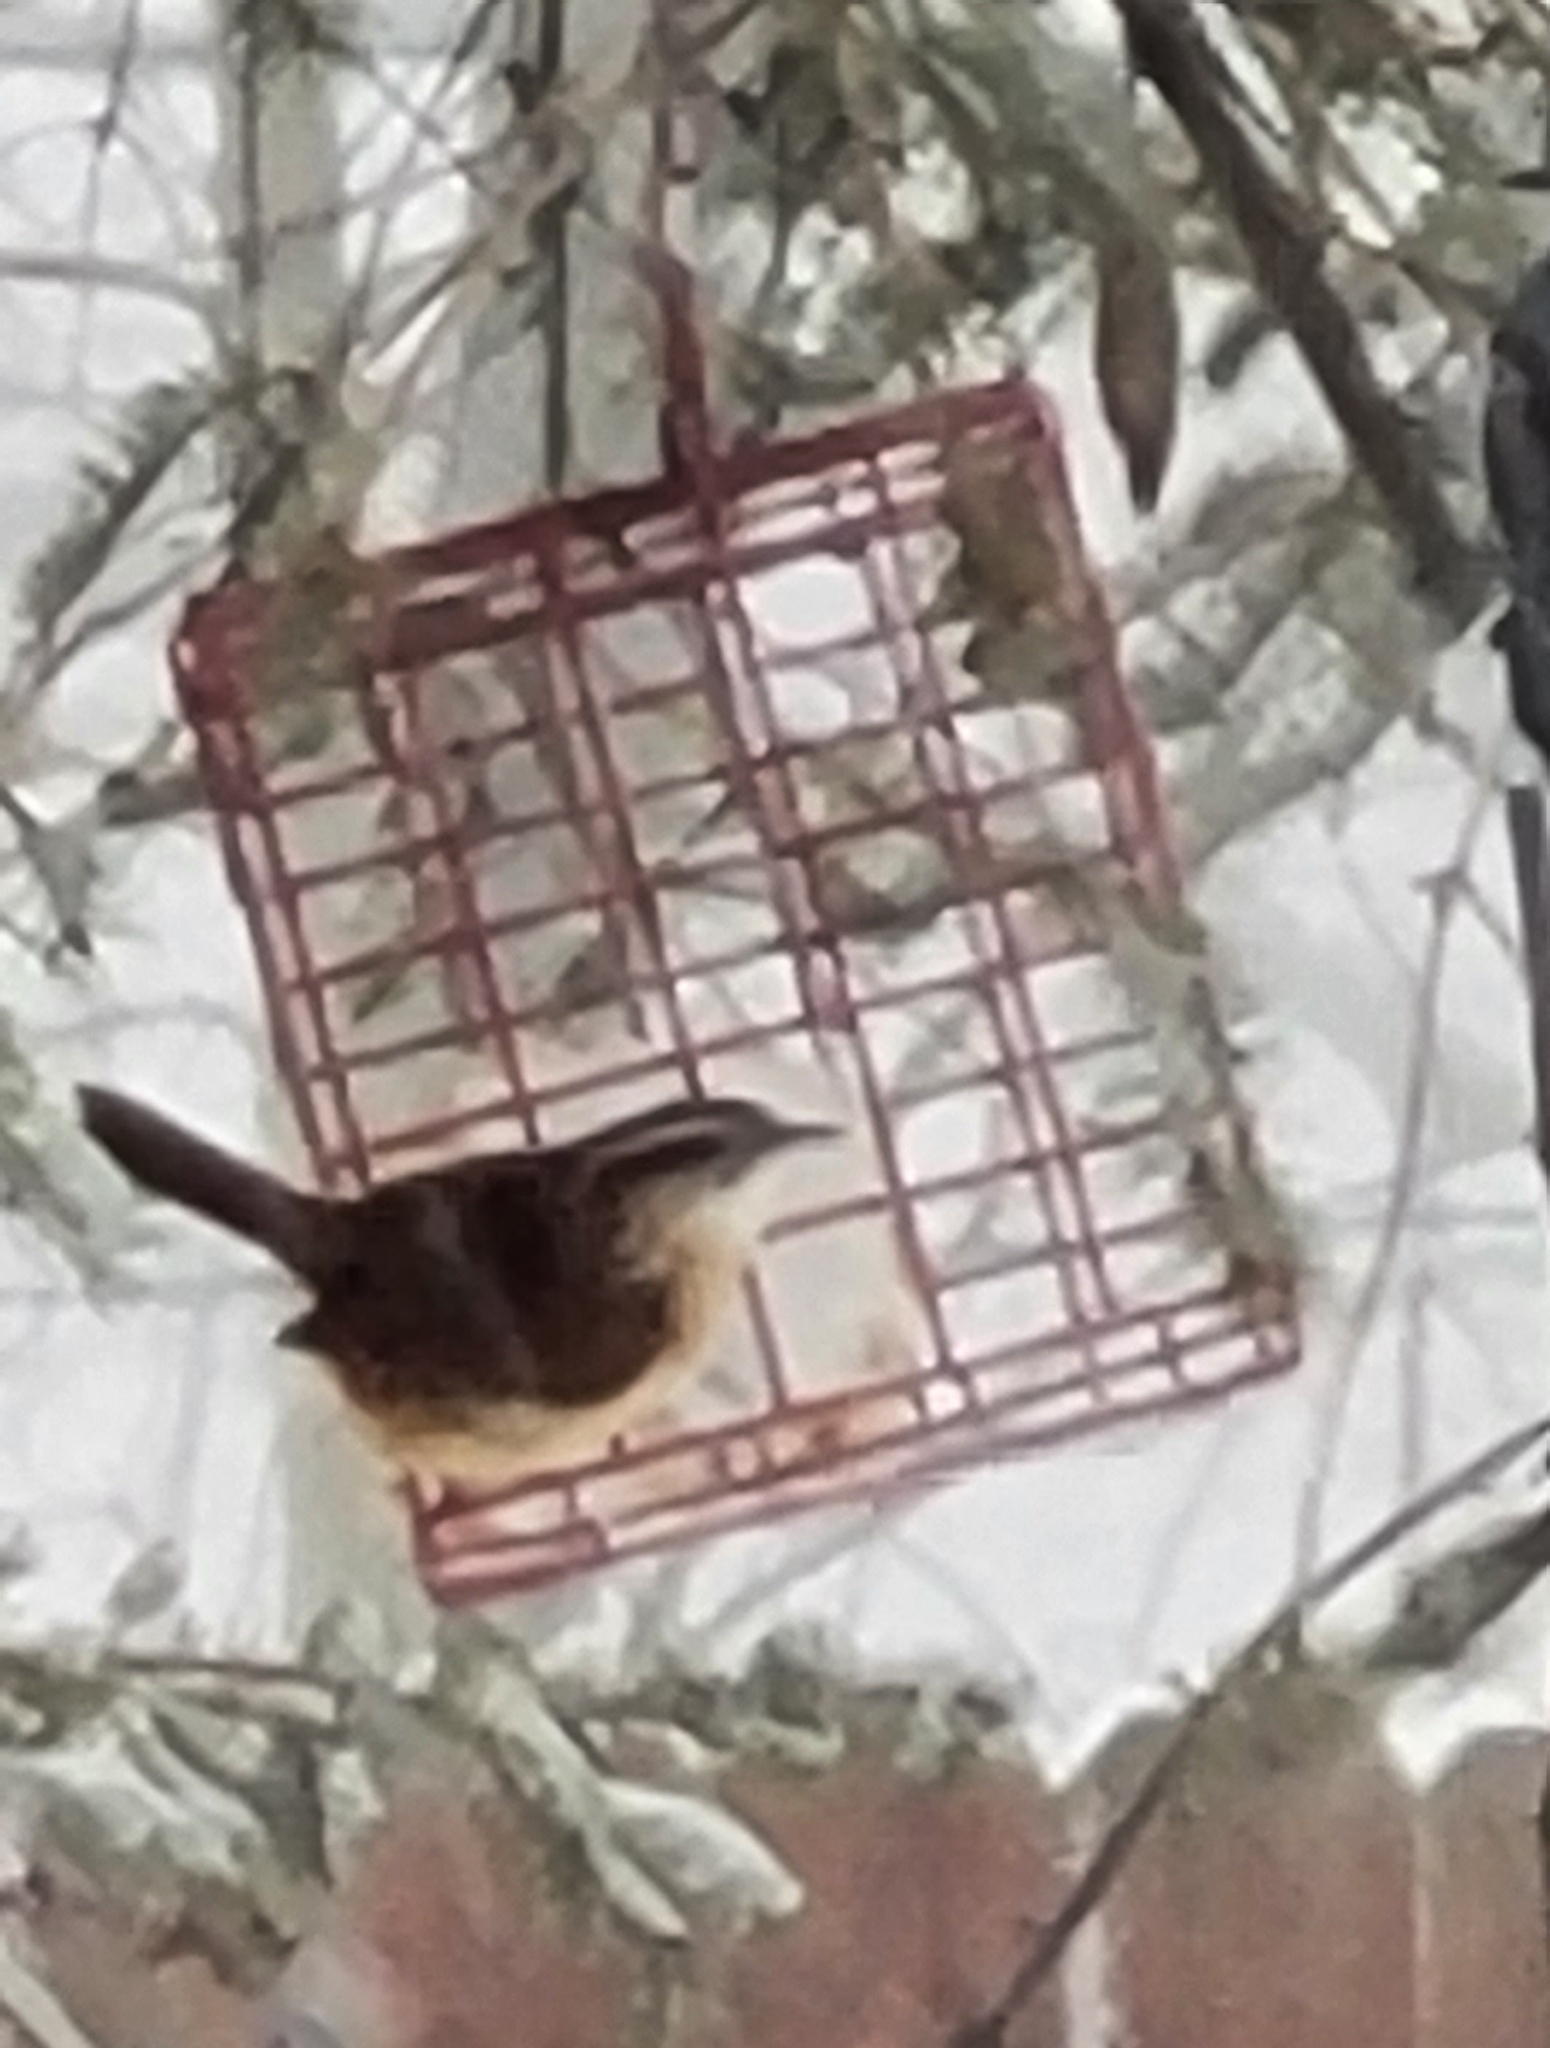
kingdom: Animalia
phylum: Chordata
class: Aves
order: Passeriformes
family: Troglodytidae
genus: Thryothorus
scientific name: Thryothorus ludovicianus
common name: Carolina wren
